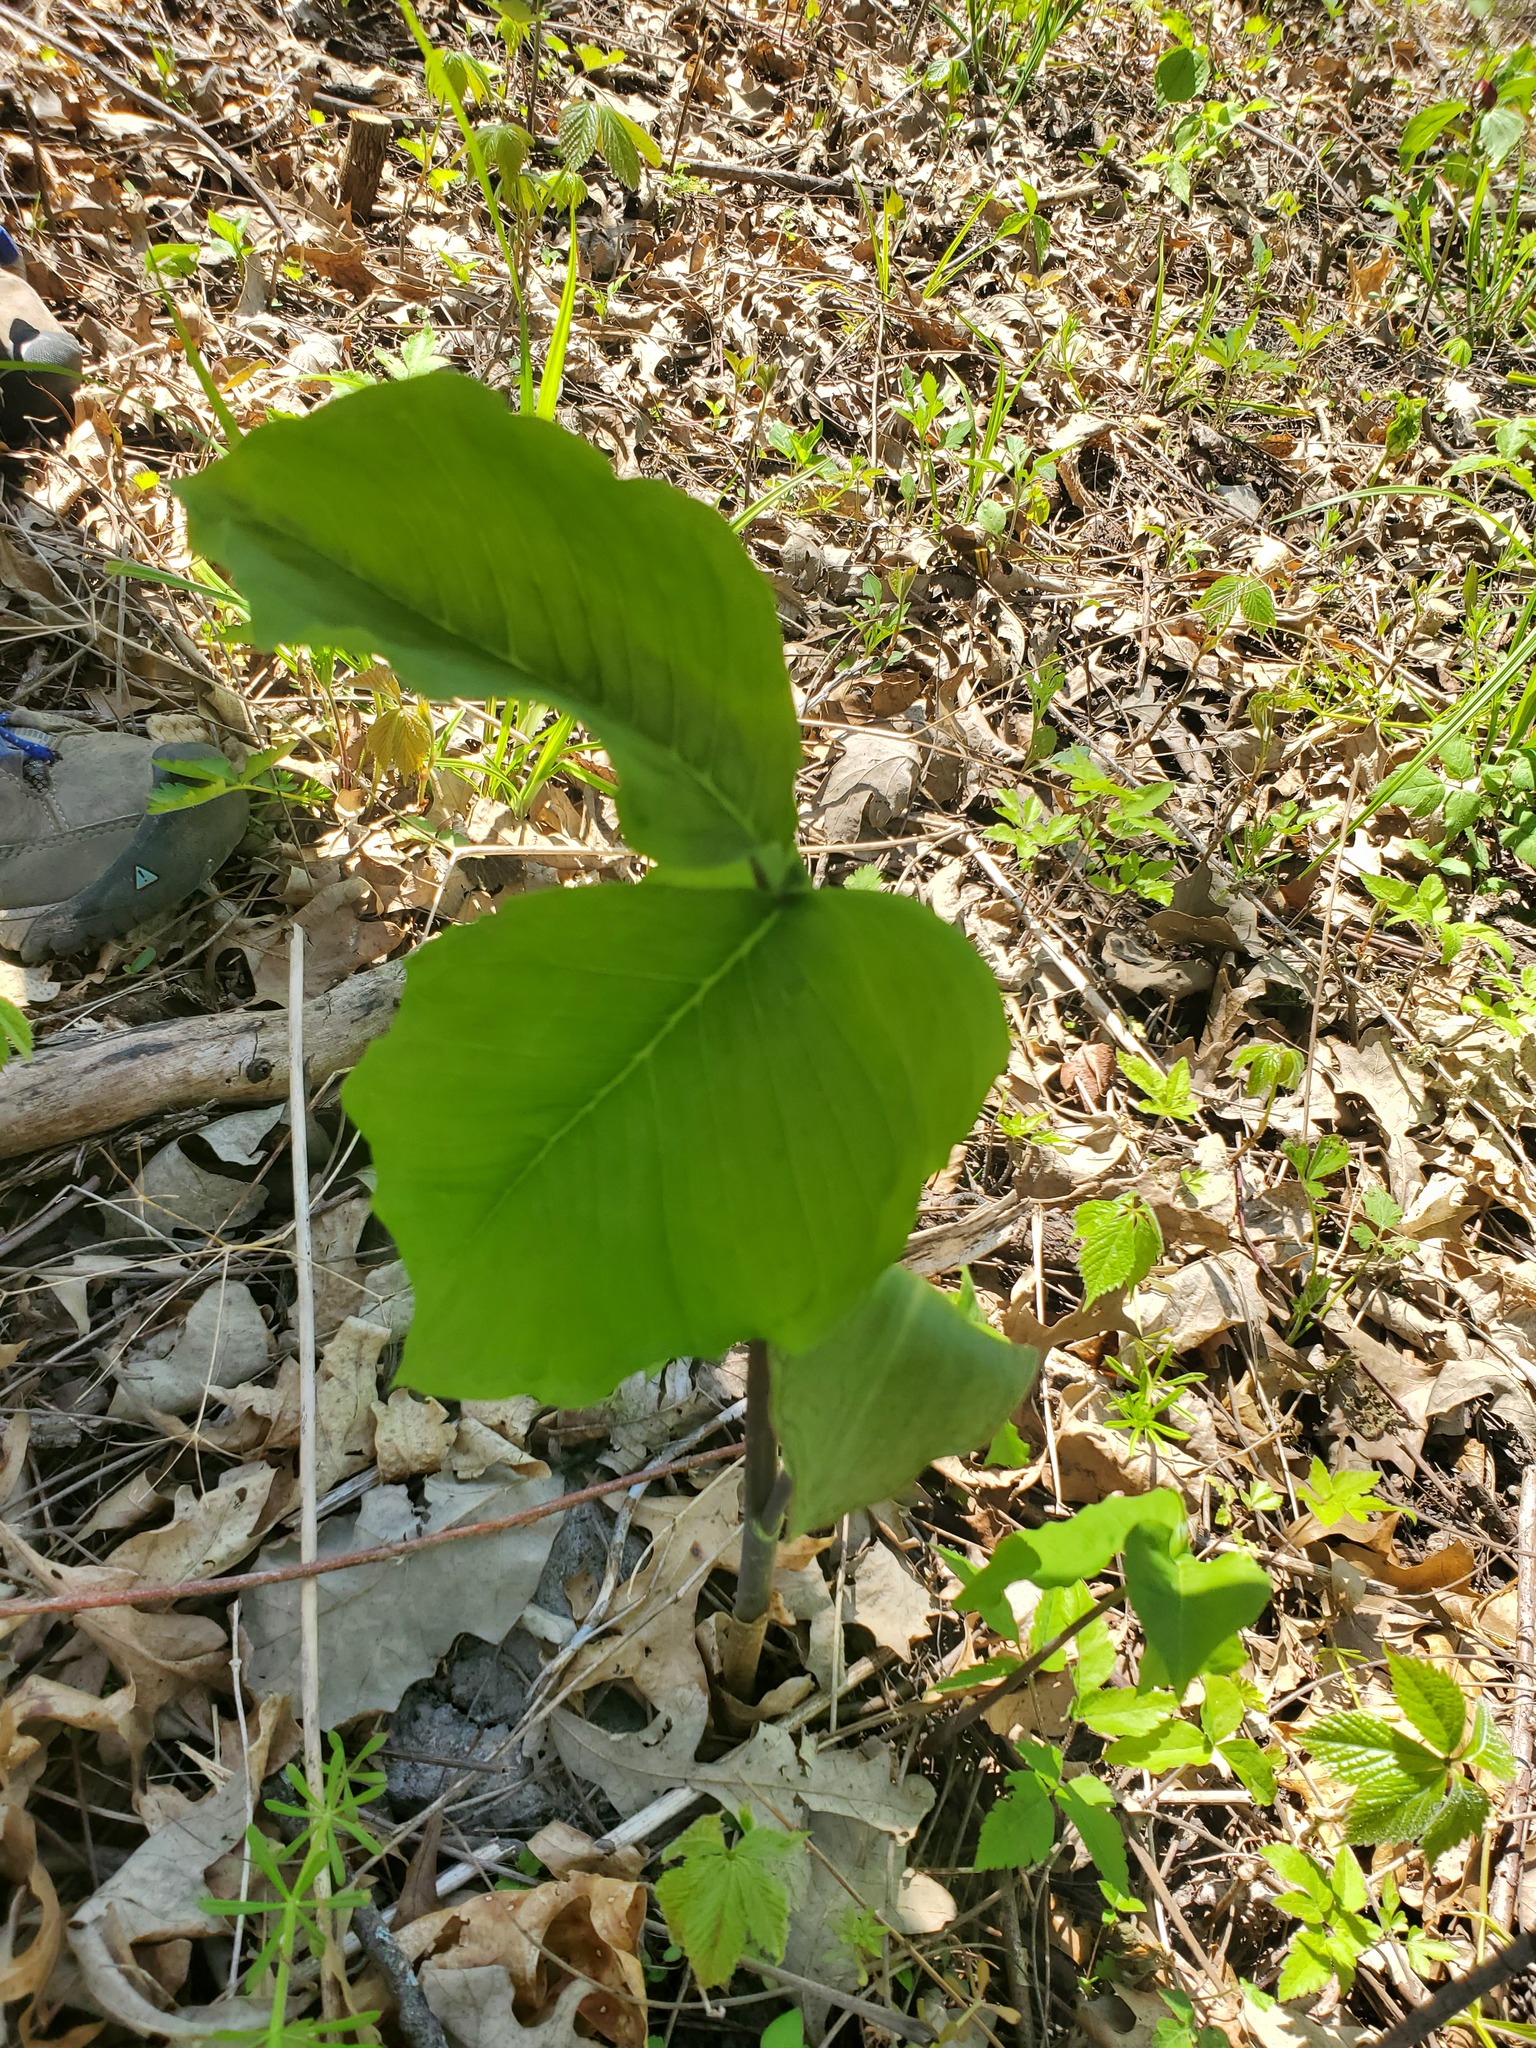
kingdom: Plantae
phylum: Tracheophyta
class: Liliopsida
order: Alismatales
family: Araceae
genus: Arisaema
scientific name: Arisaema triphyllum
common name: Jack-in-the-pulpit
